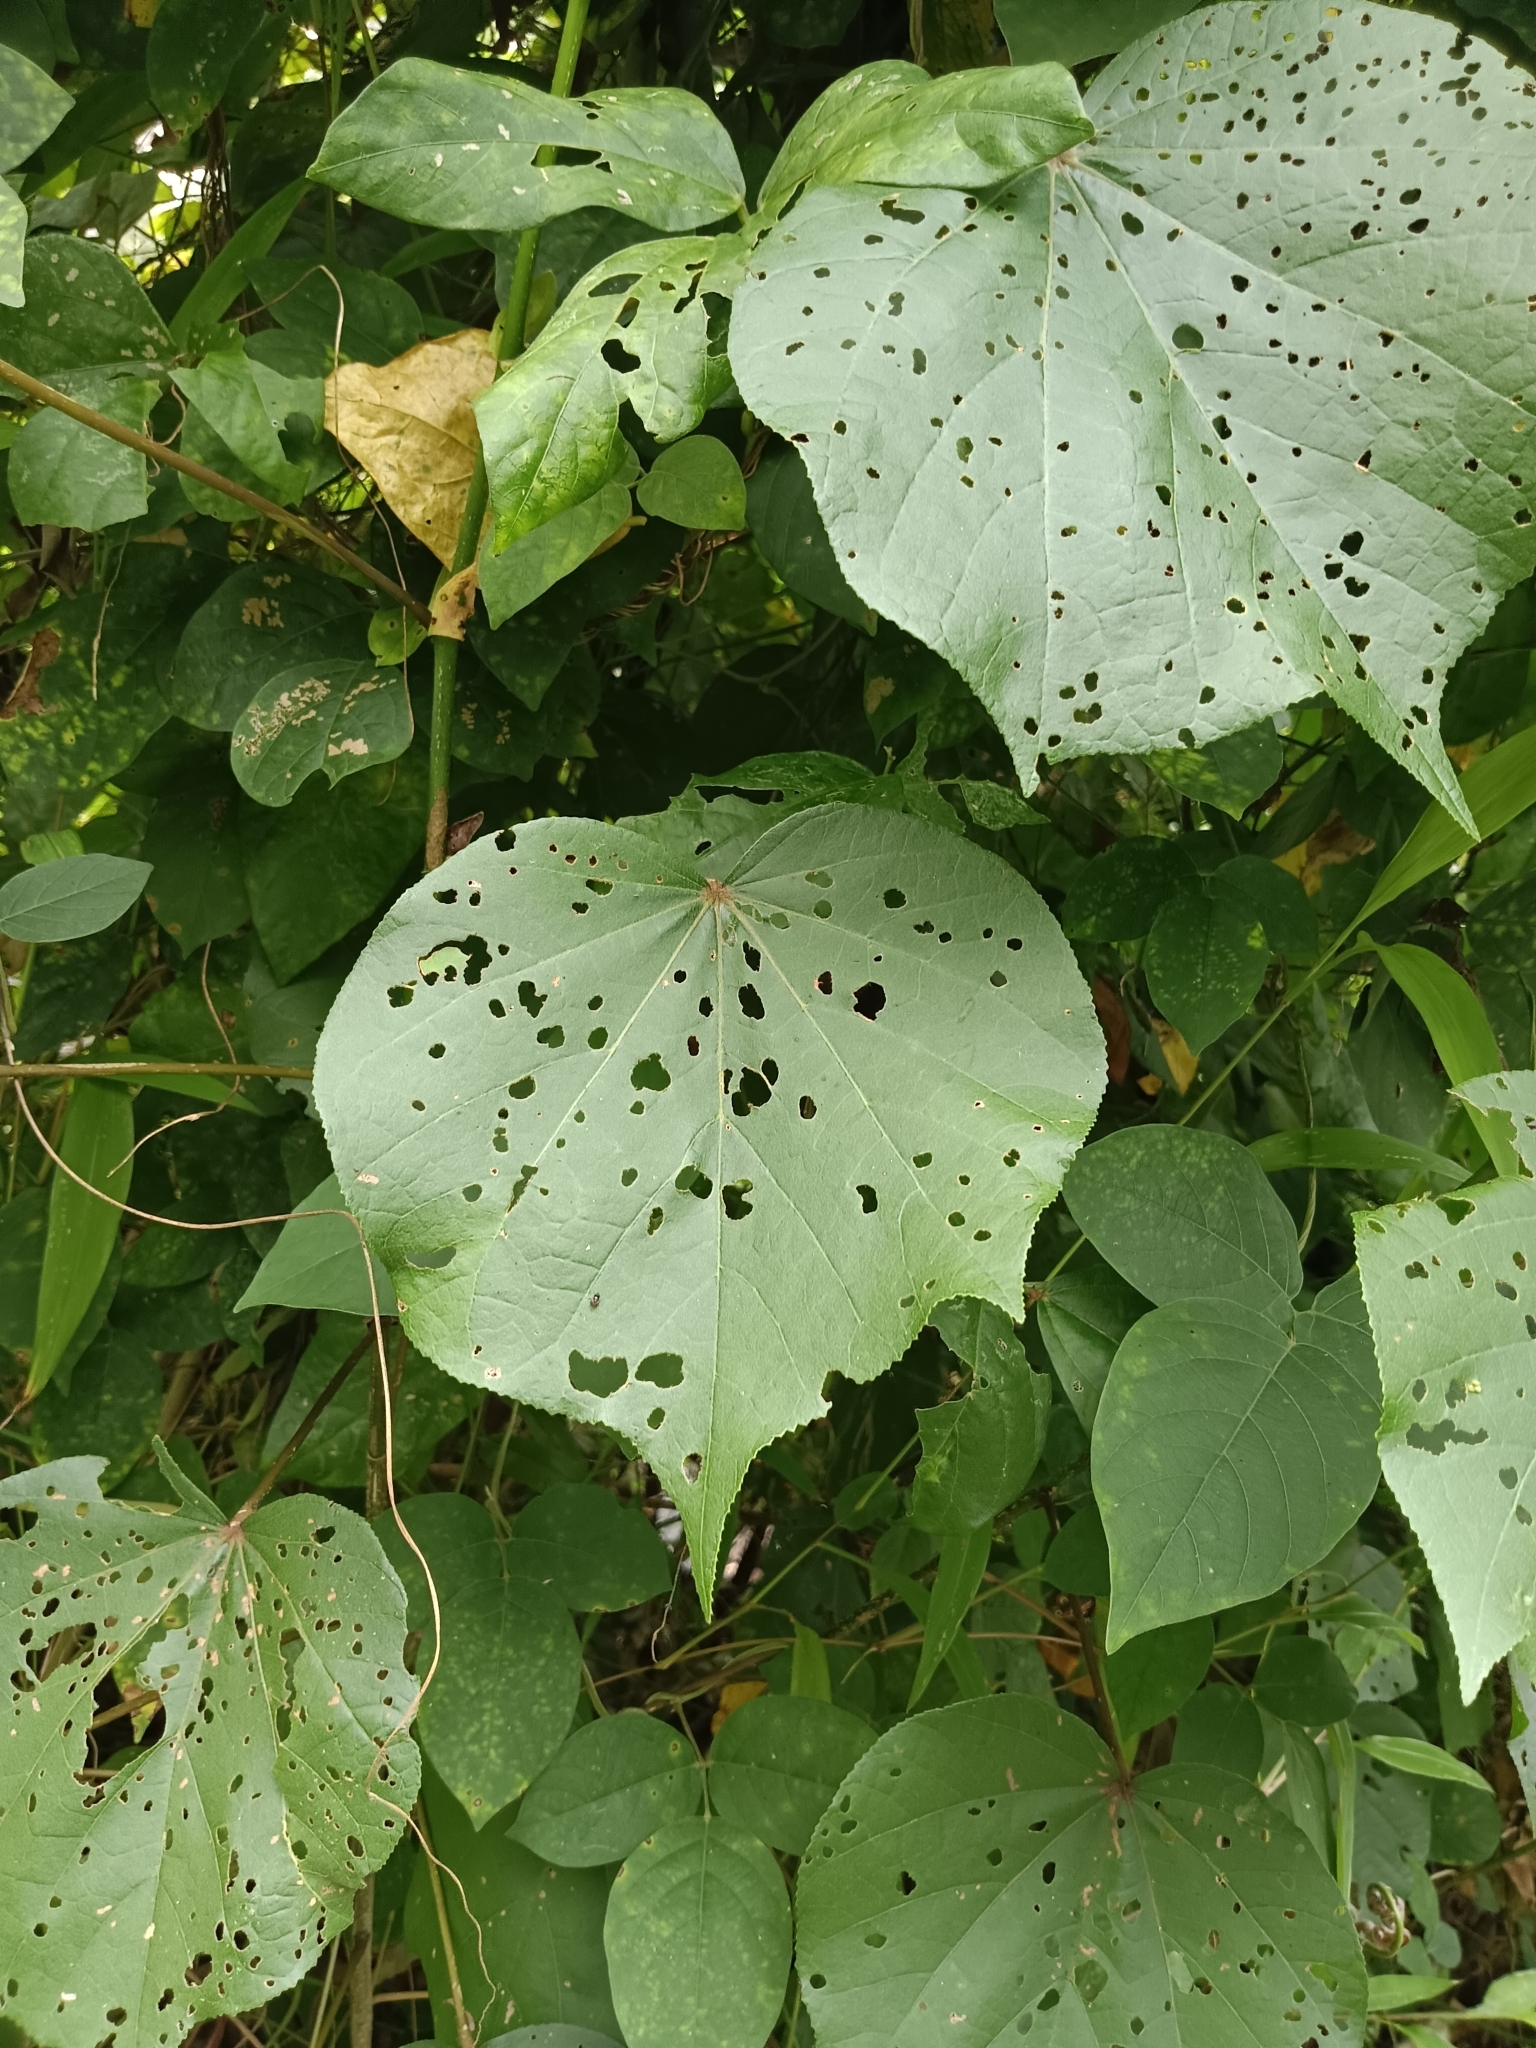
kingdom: Plantae
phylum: Tracheophyta
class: Magnoliopsida
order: Malvales
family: Malvaceae
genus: Talipariti
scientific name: Talipariti tiliaceum
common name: Sea hibiscus
